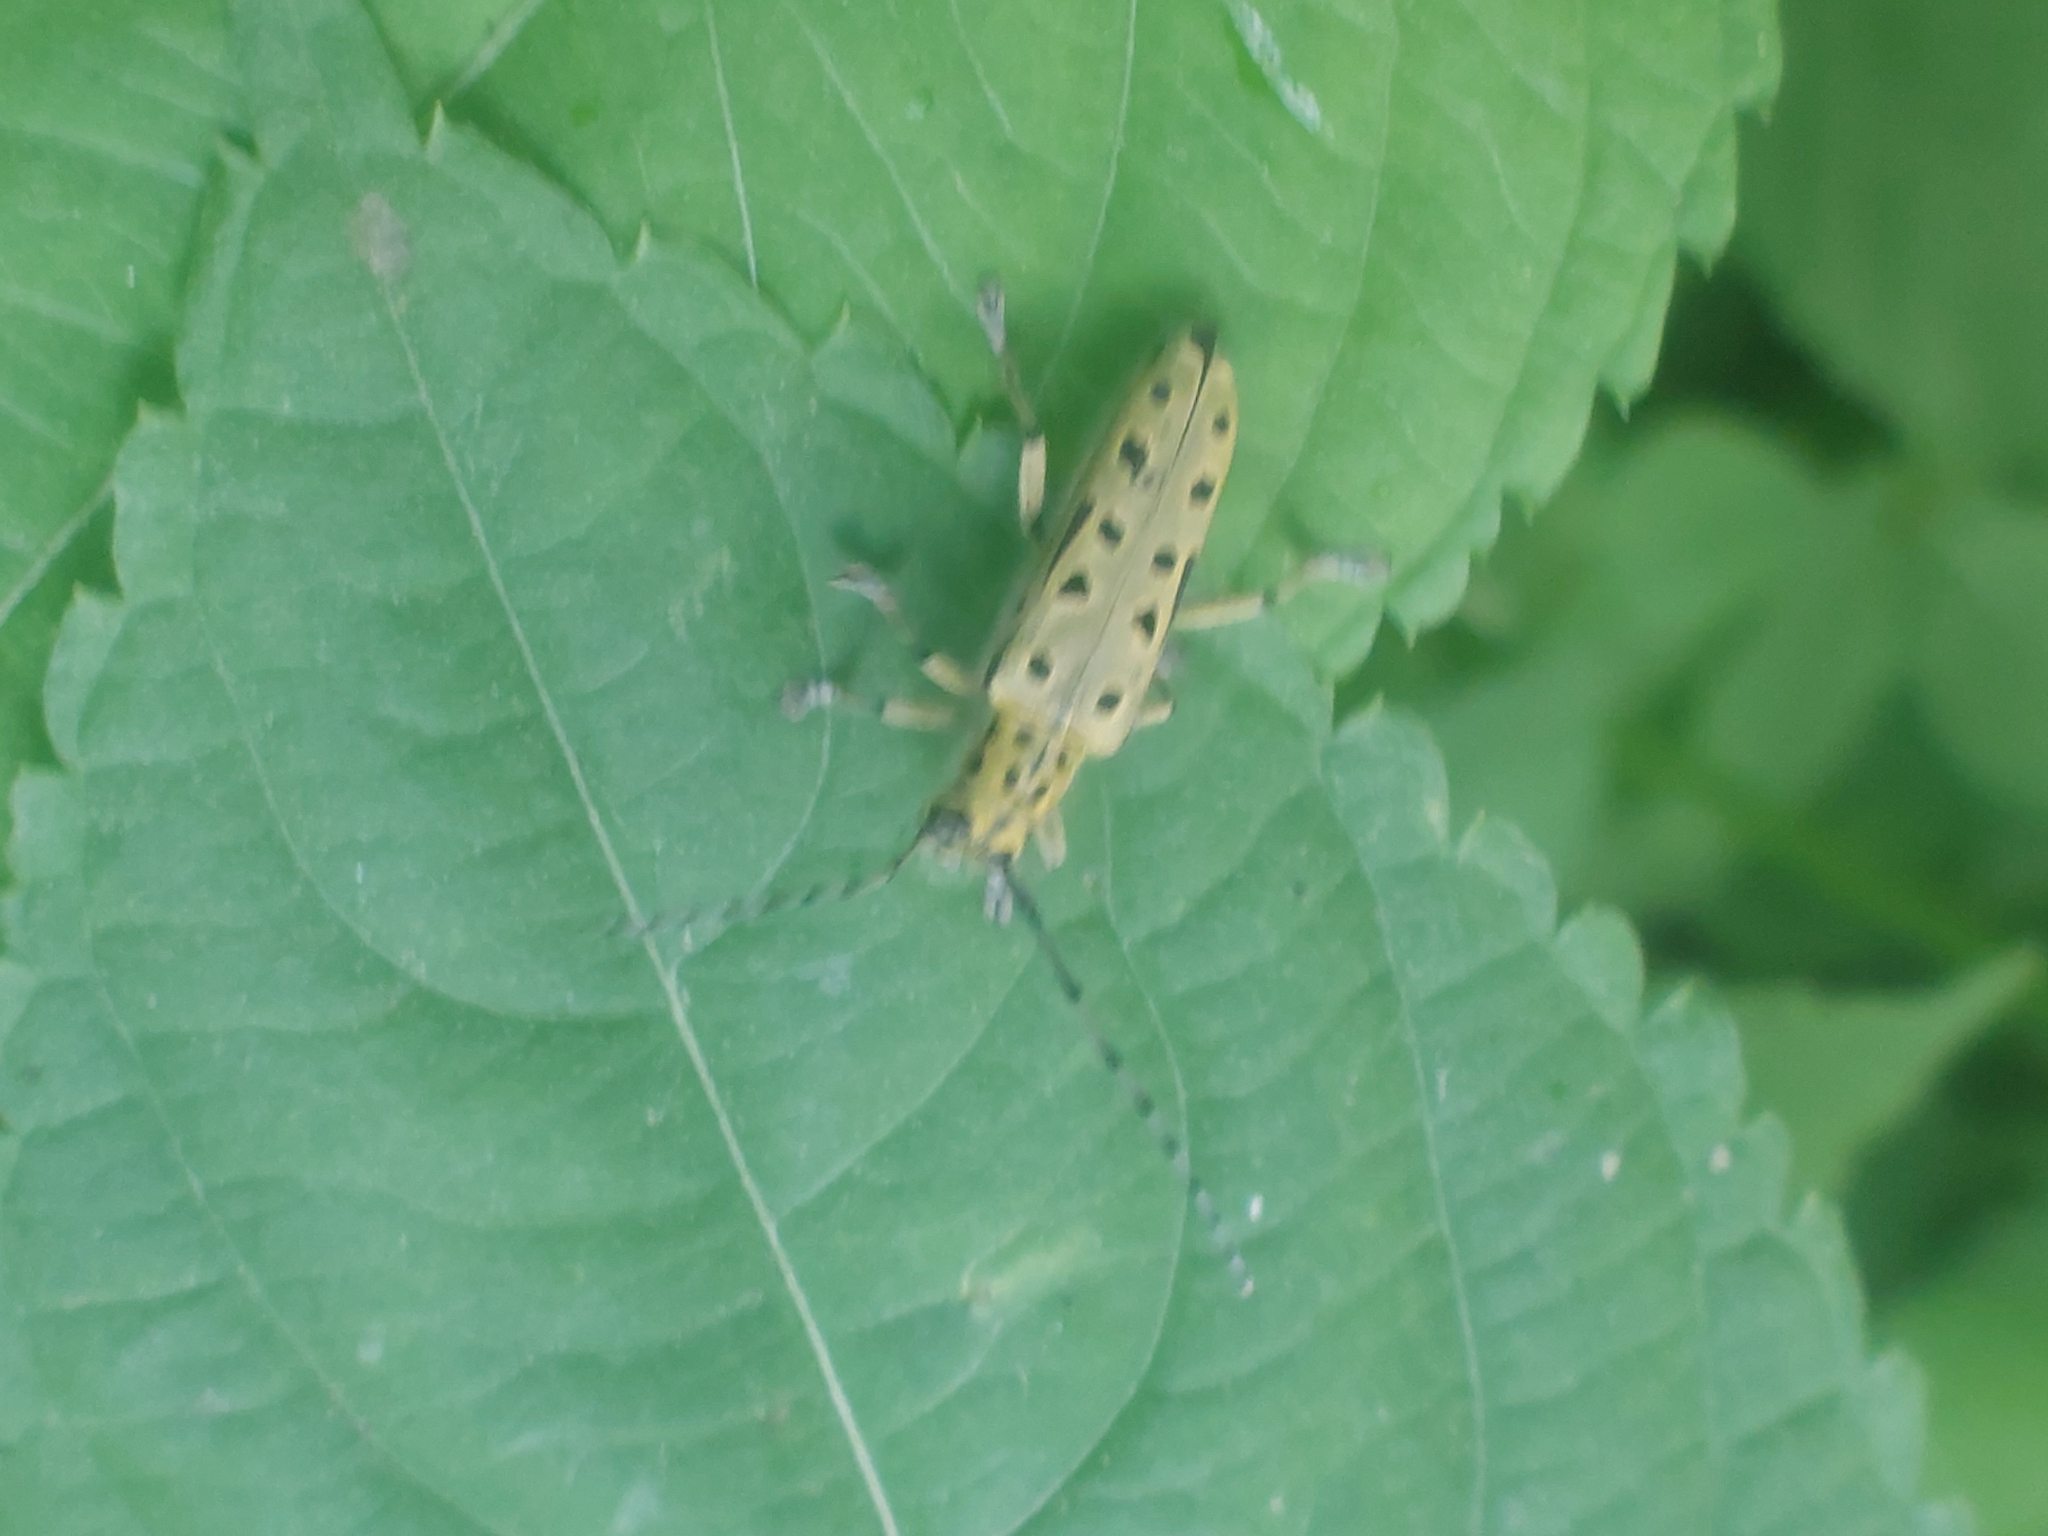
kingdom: Animalia
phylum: Arthropoda
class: Insecta
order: Coleoptera
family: Cerambycidae
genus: Saperda
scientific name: Saperda perforata
